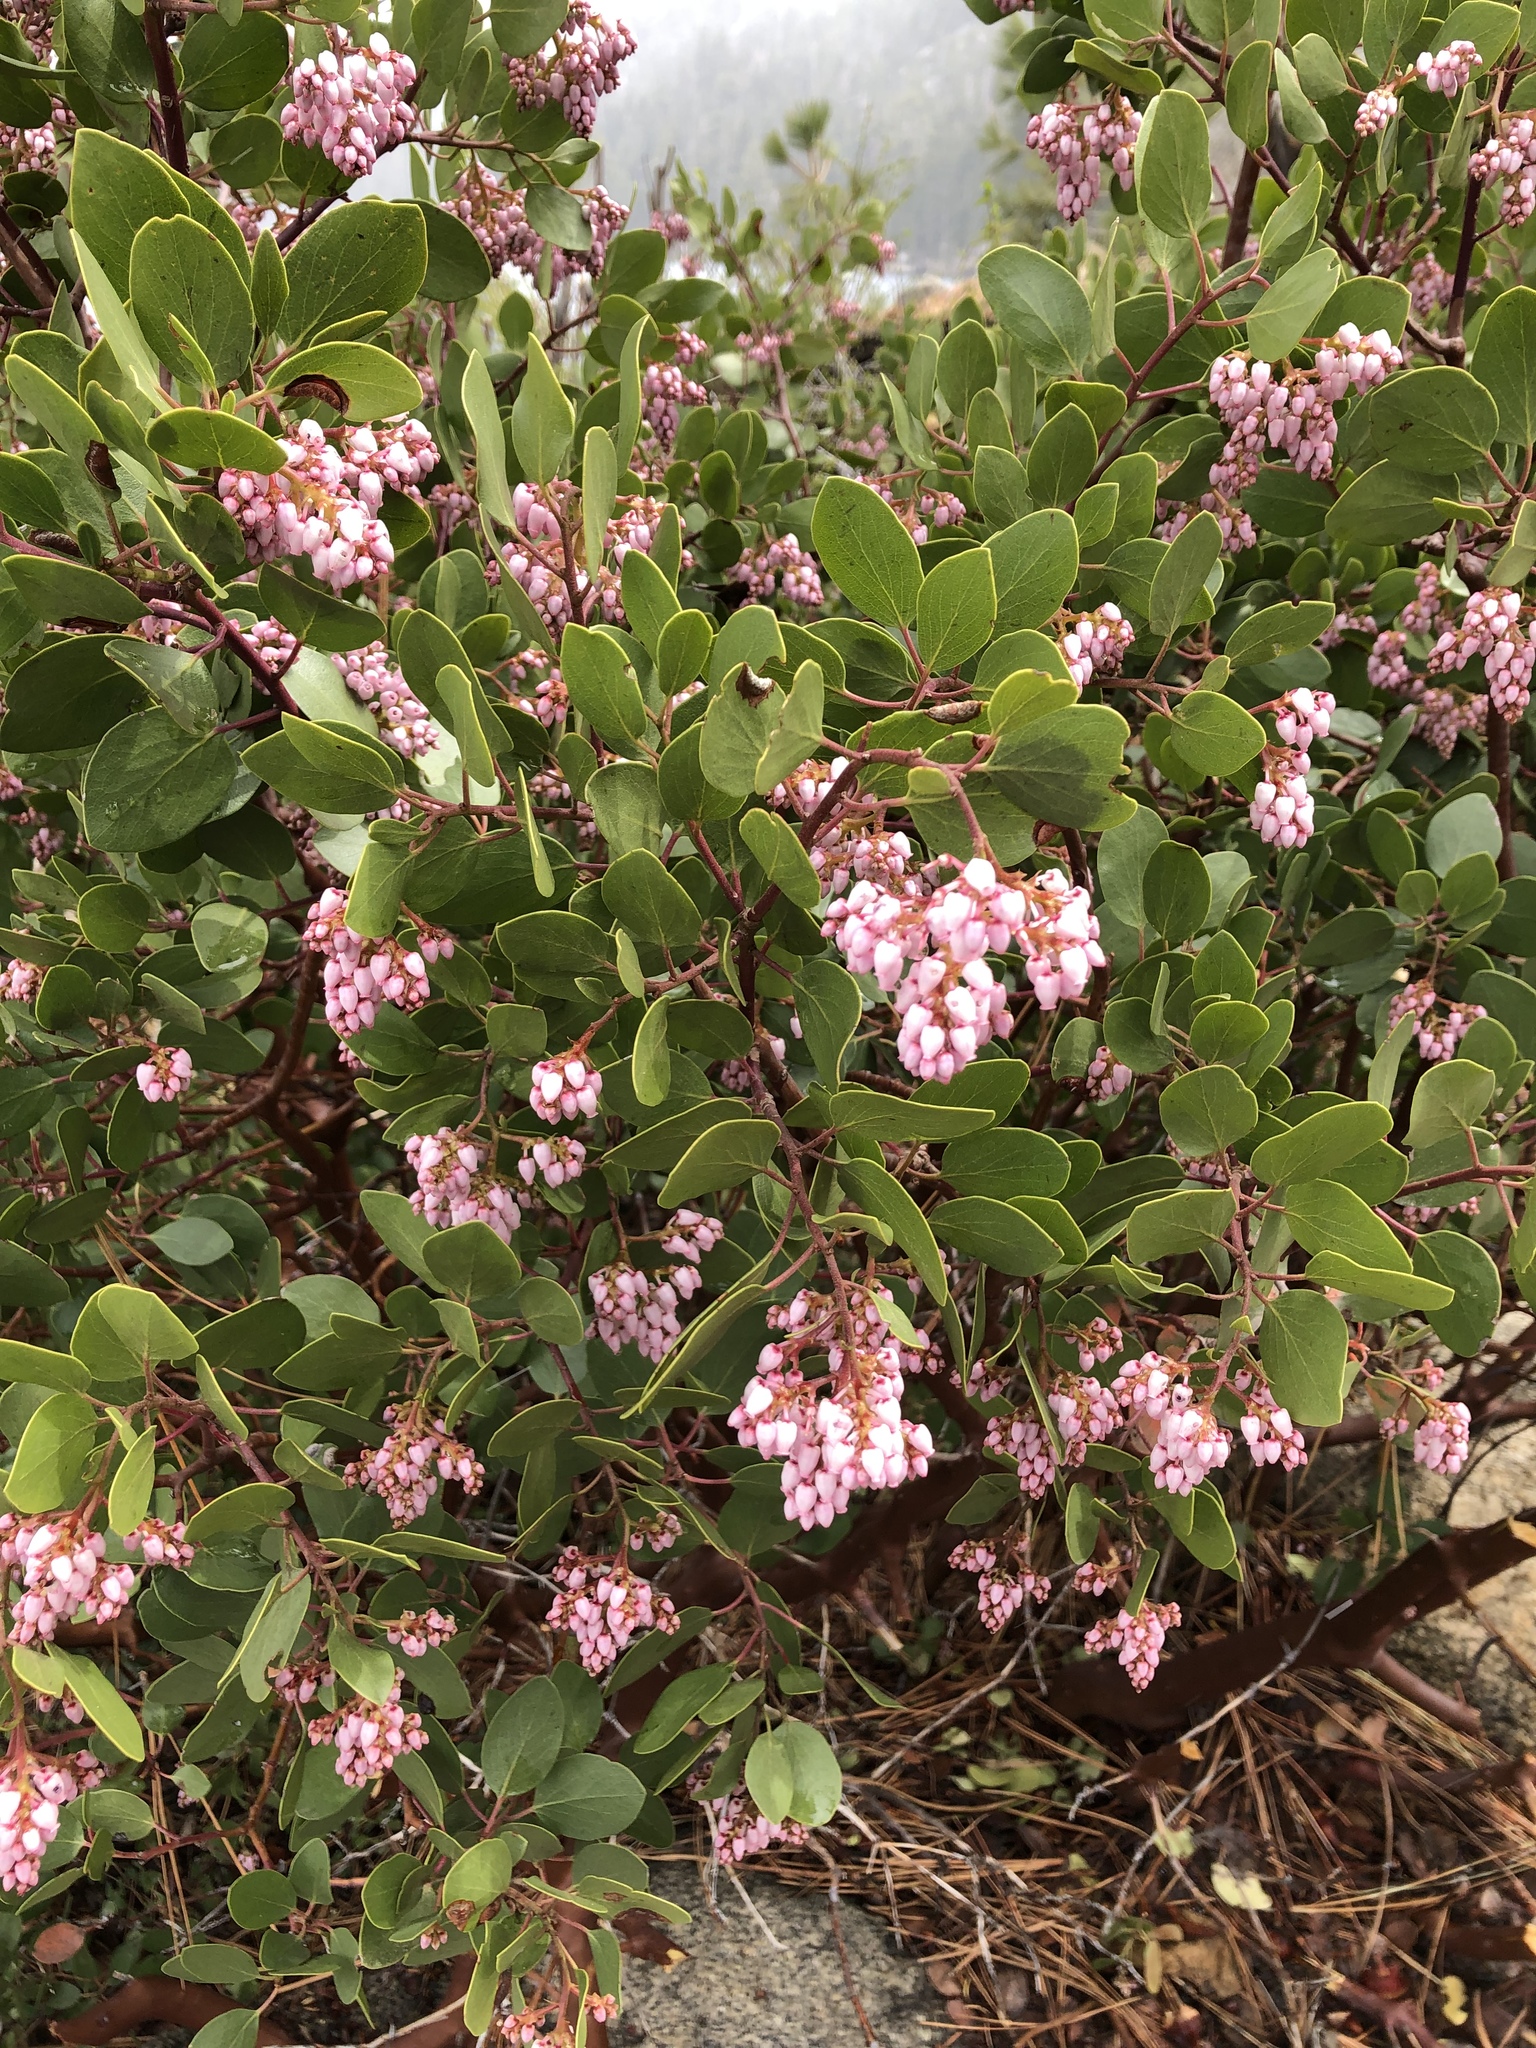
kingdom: Plantae
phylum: Tracheophyta
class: Magnoliopsida
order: Ericales
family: Ericaceae
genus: Arctostaphylos
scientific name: Arctostaphylos patula
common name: Green-leaf manzanita
